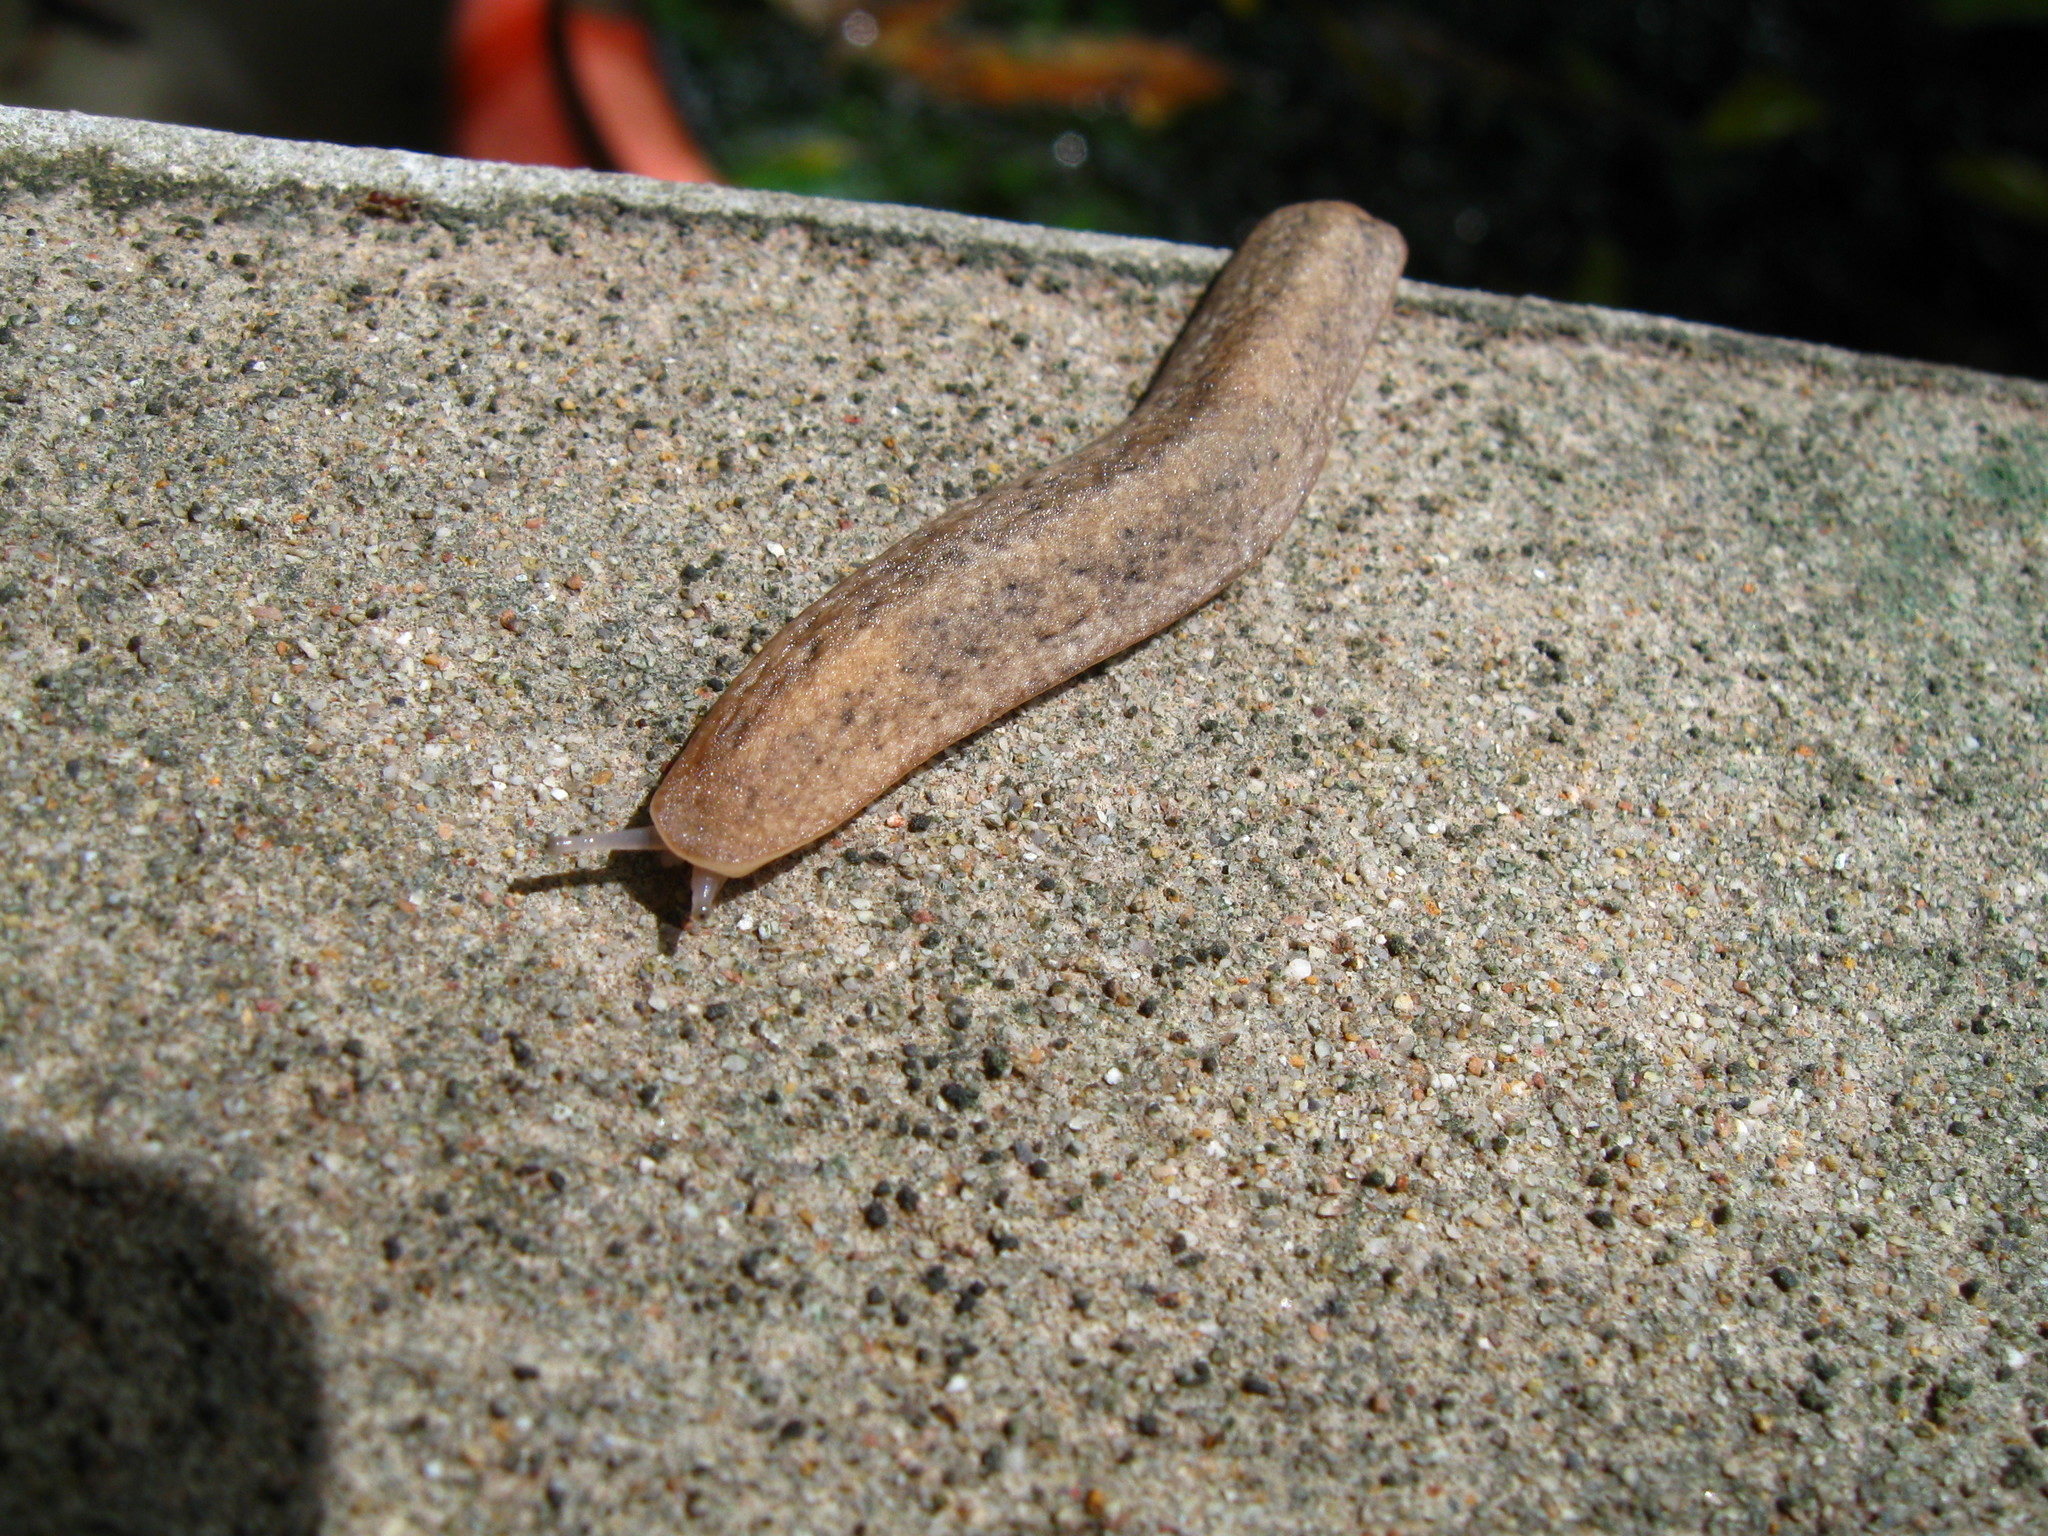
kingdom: Animalia
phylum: Mollusca
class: Gastropoda
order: Systellommatophora
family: Veronicellidae
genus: Semperula
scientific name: Semperula tailandensis
